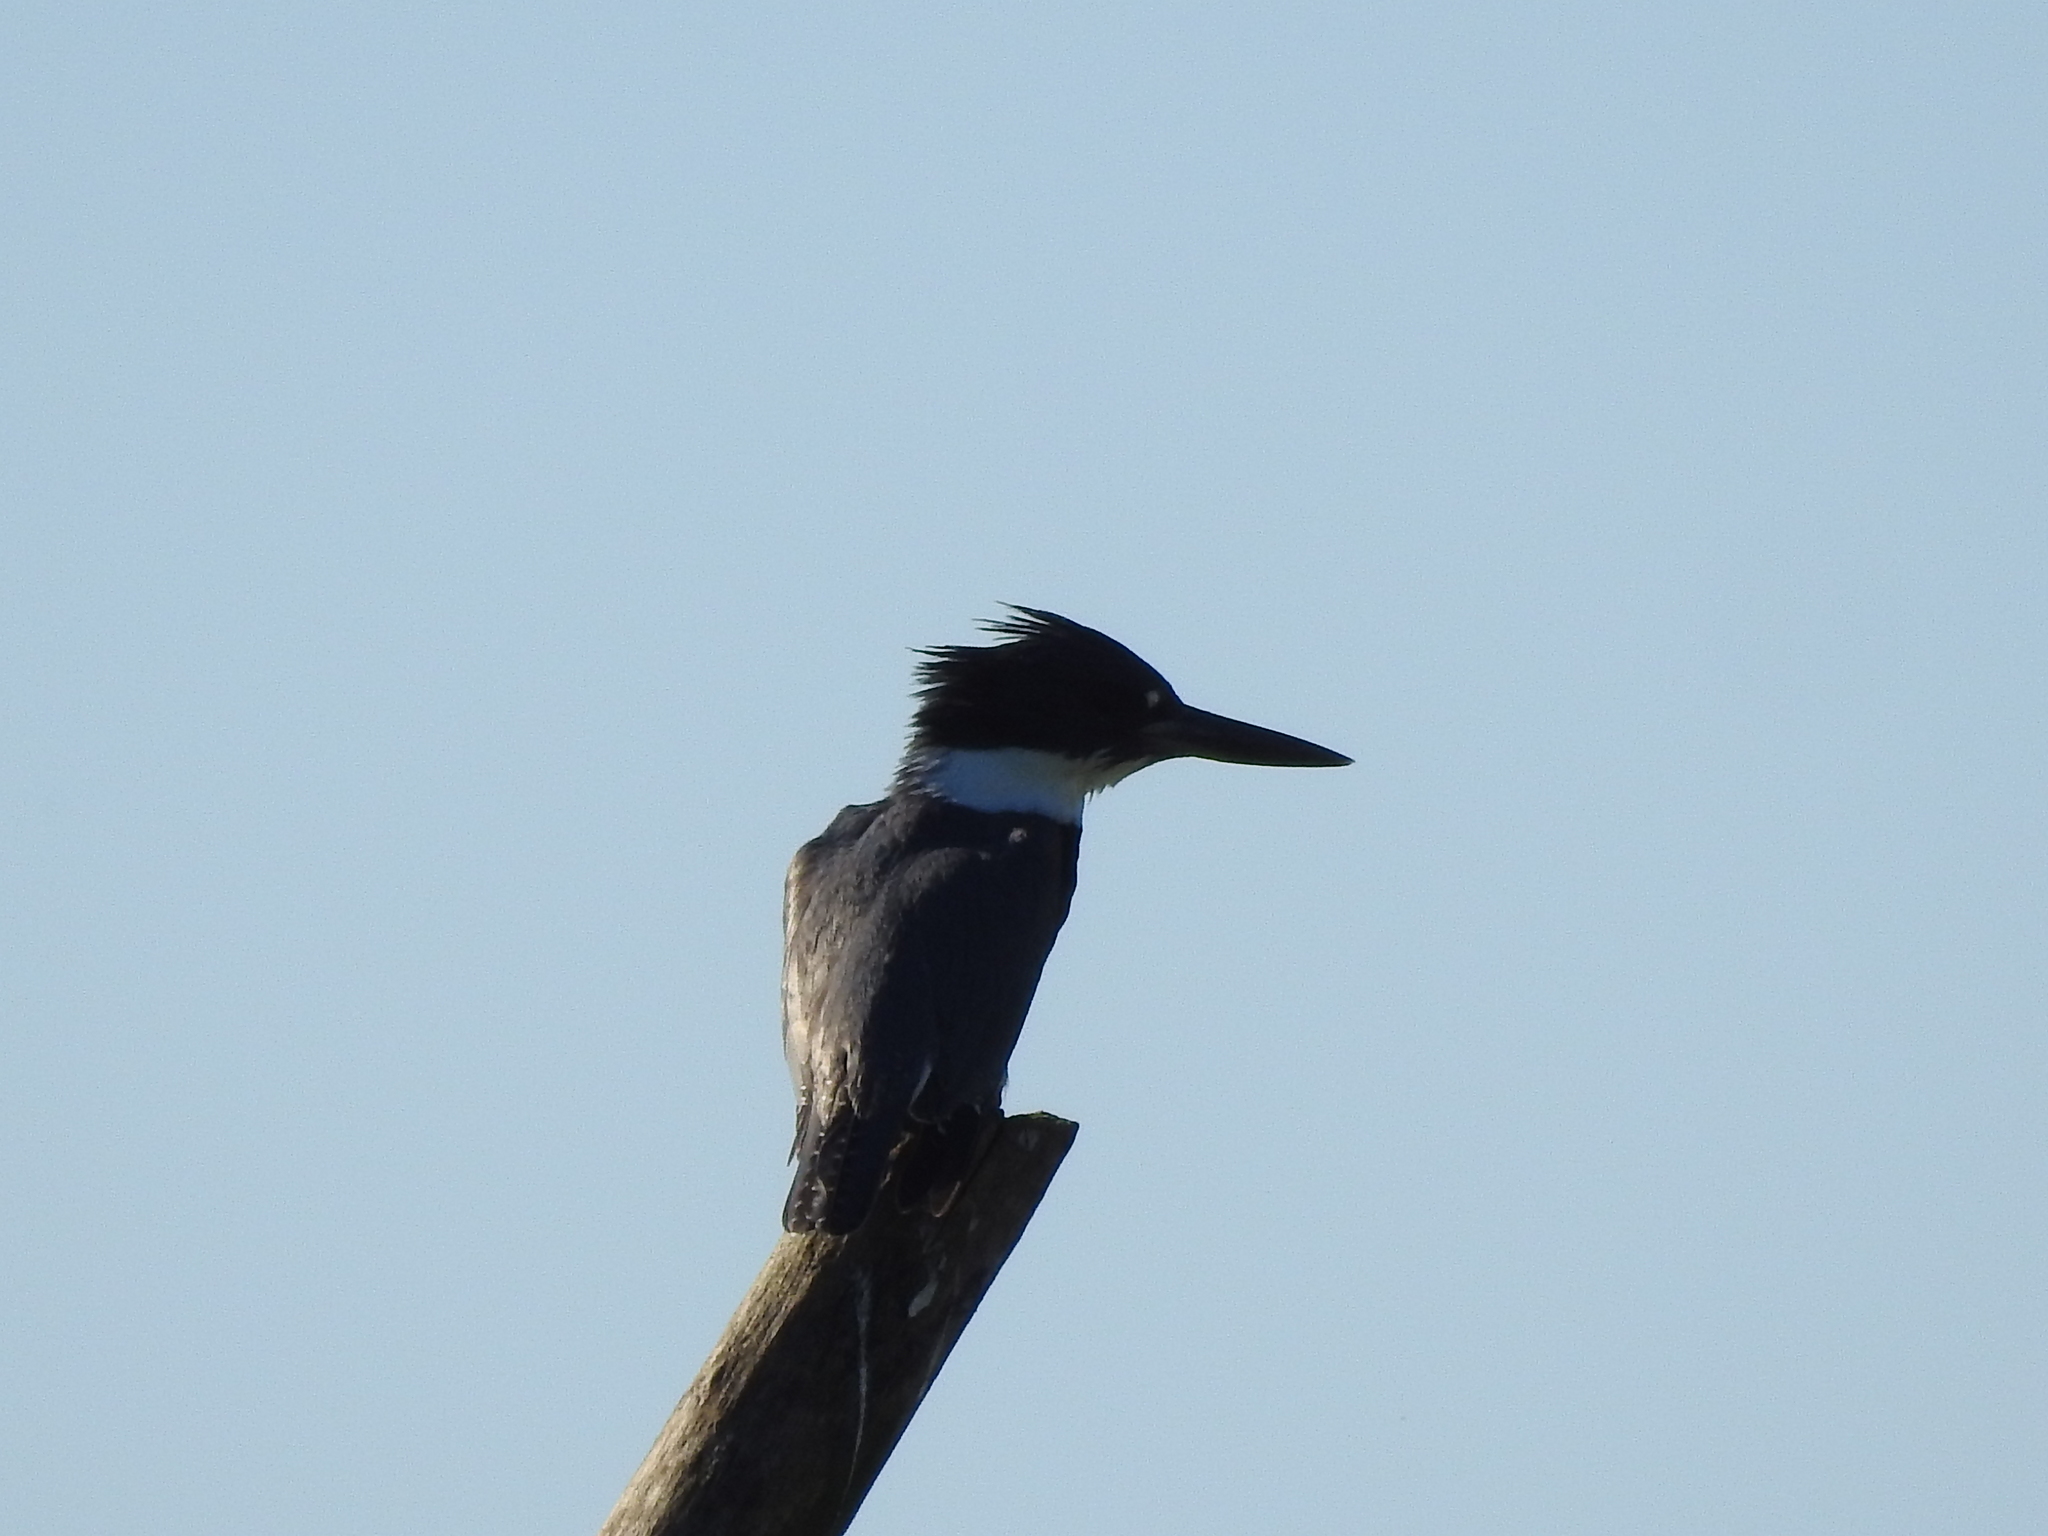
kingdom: Animalia
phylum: Chordata
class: Aves
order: Coraciiformes
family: Alcedinidae
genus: Megaceryle
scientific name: Megaceryle alcyon
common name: Belted kingfisher
